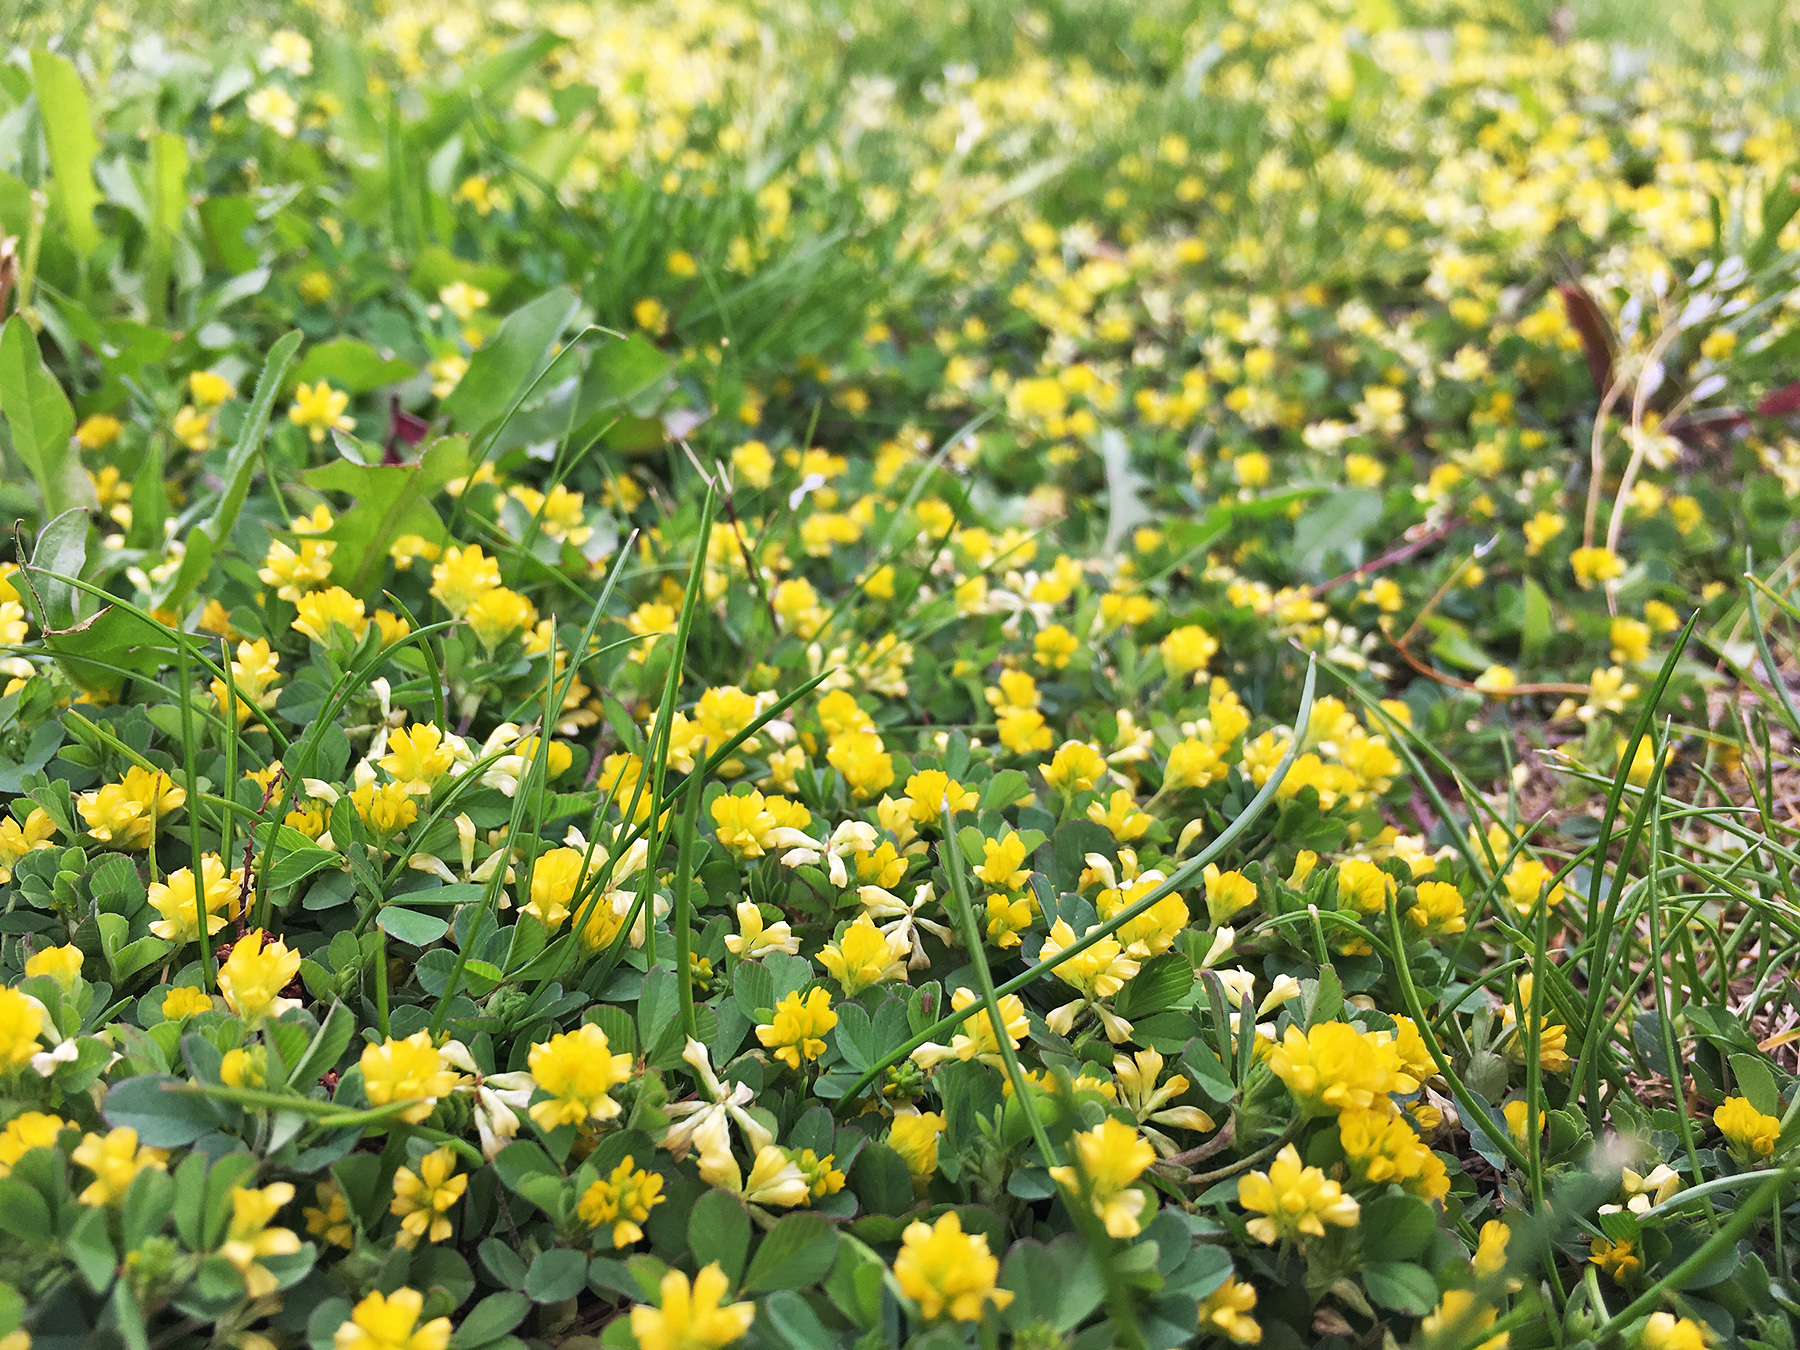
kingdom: Plantae
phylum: Tracheophyta
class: Magnoliopsida
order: Fabales
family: Fabaceae
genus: Trifolium
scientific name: Trifolium dubium
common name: Suckling clover
